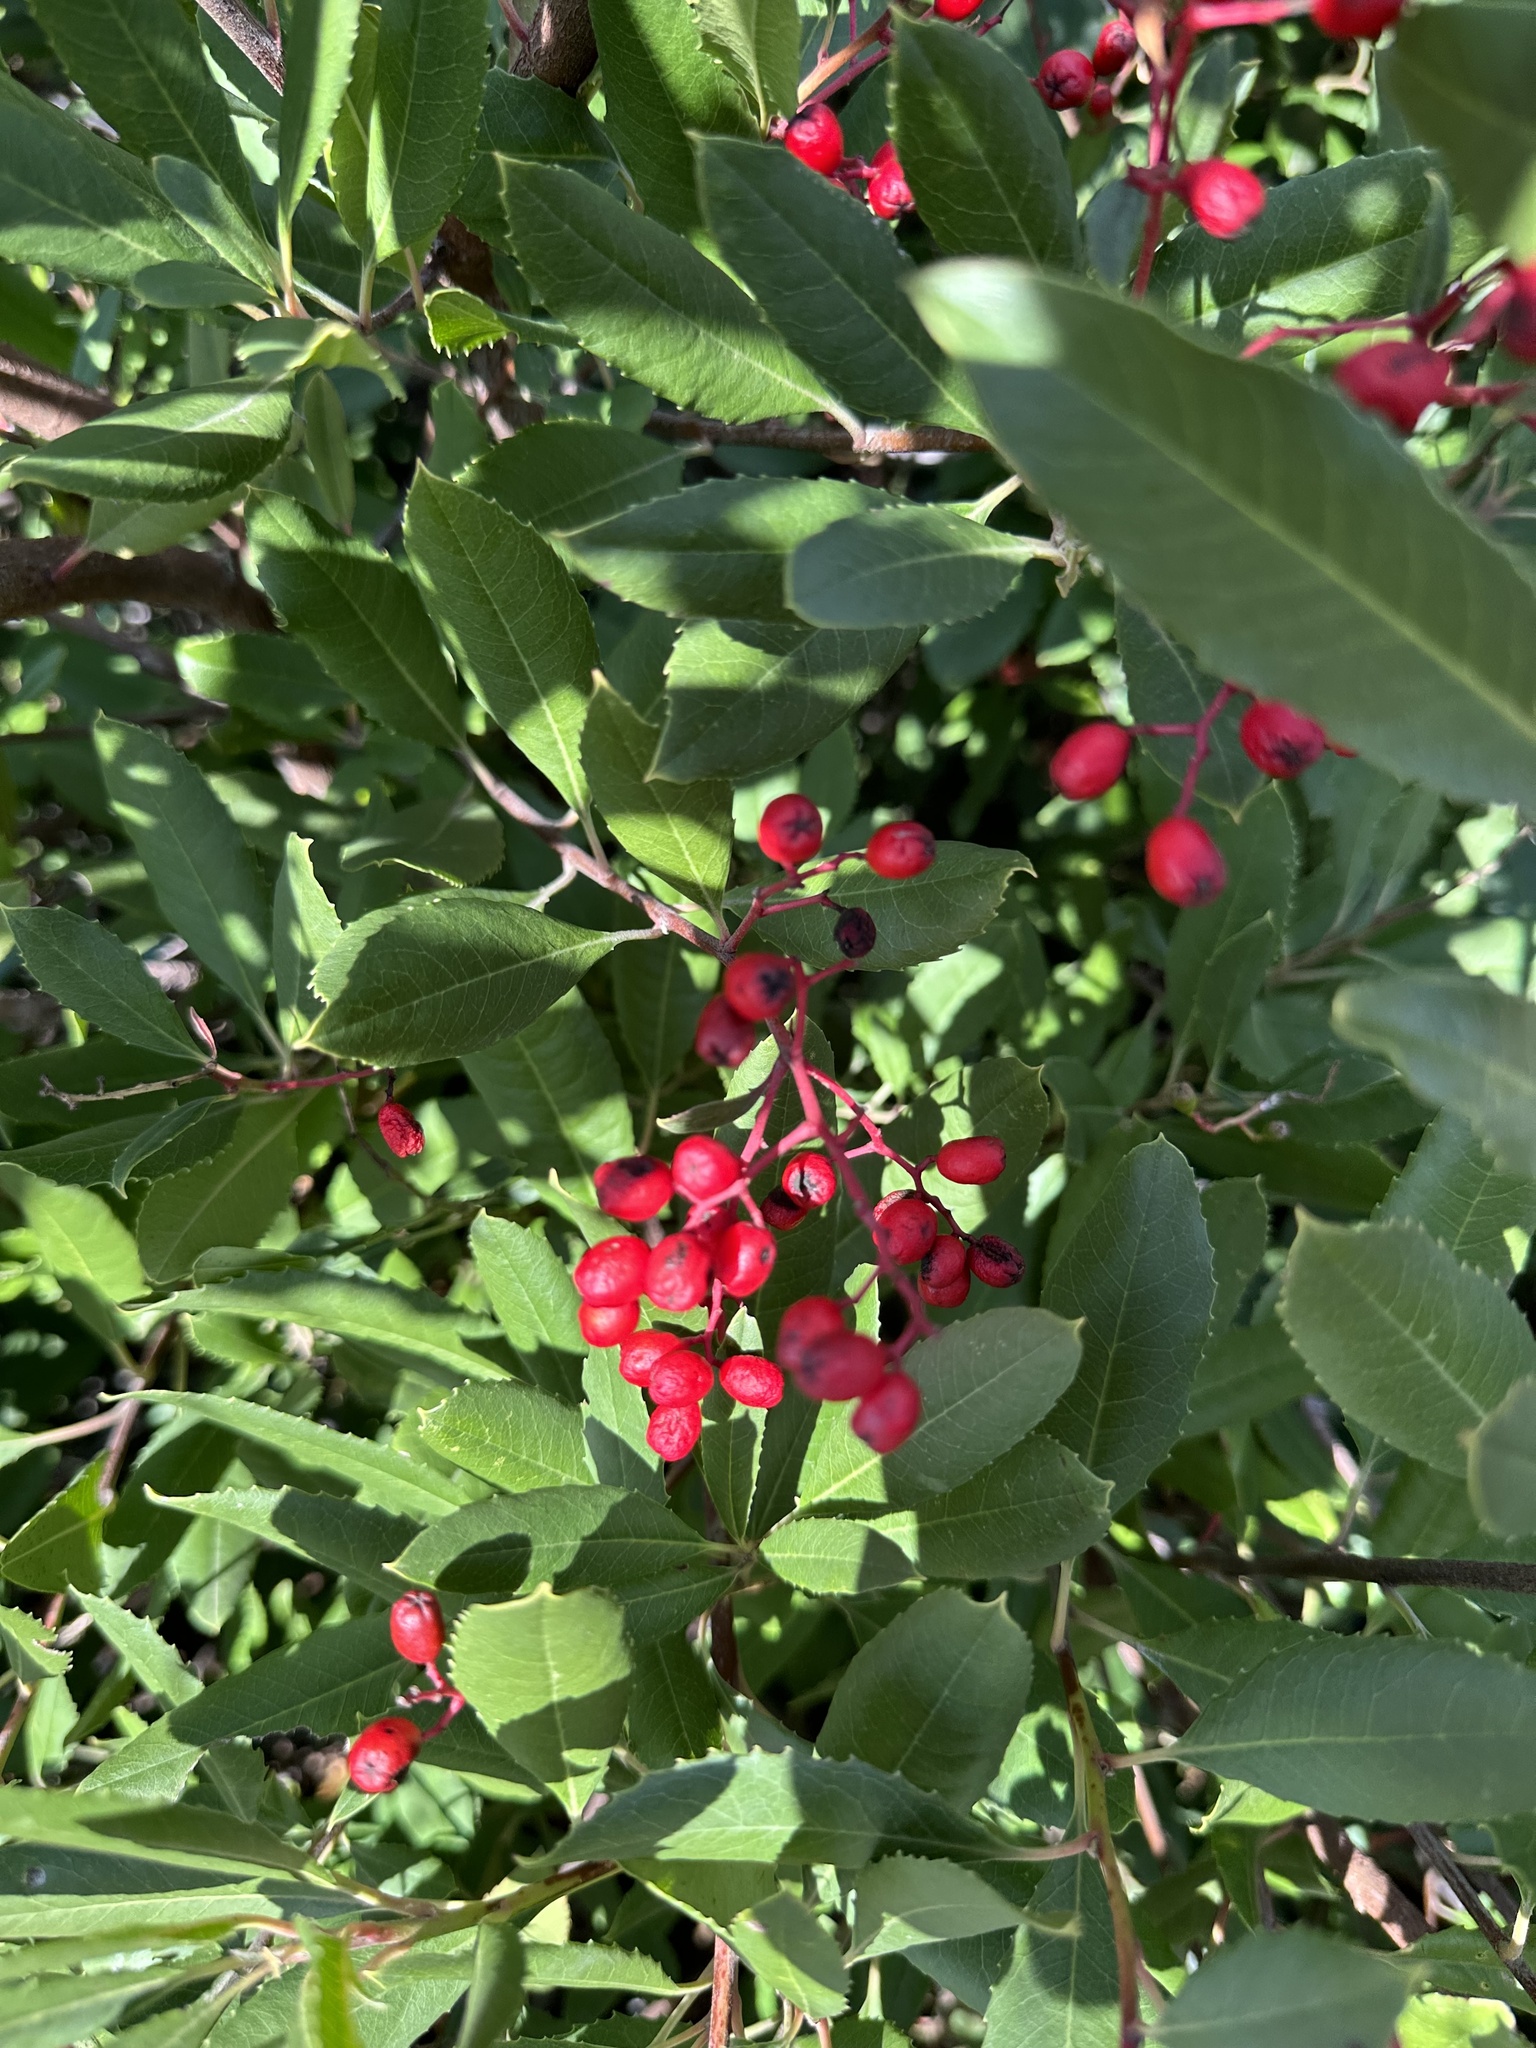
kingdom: Plantae
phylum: Tracheophyta
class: Magnoliopsida
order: Rosales
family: Rosaceae
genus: Heteromeles
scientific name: Heteromeles arbutifolia
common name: California-holly
